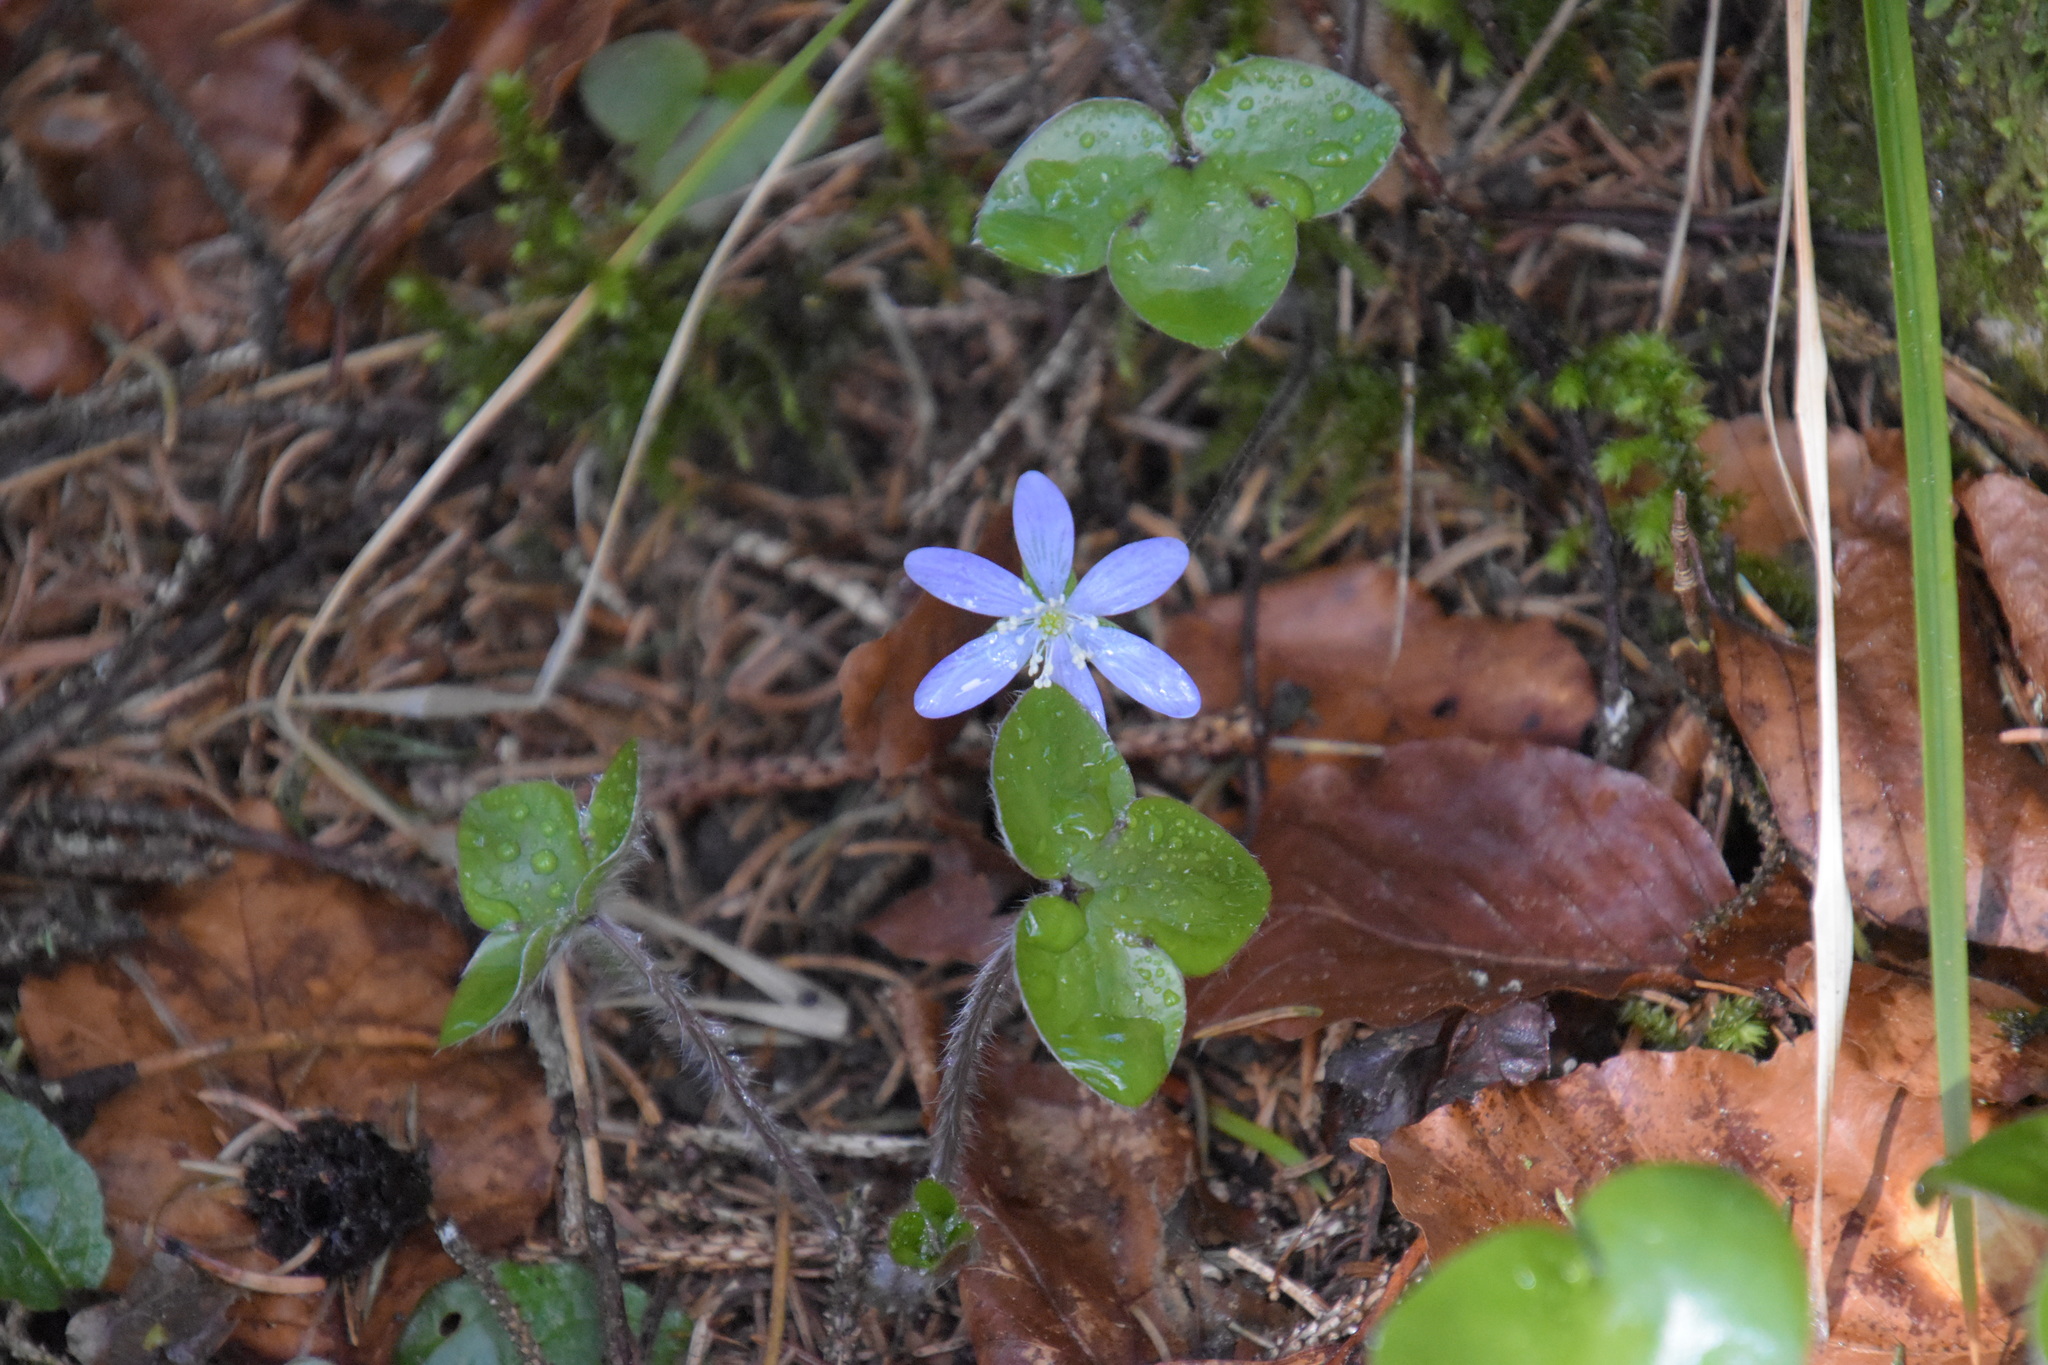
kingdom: Plantae
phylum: Tracheophyta
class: Magnoliopsida
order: Ranunculales
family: Ranunculaceae
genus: Hepatica
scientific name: Hepatica nobilis
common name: Liverleaf
